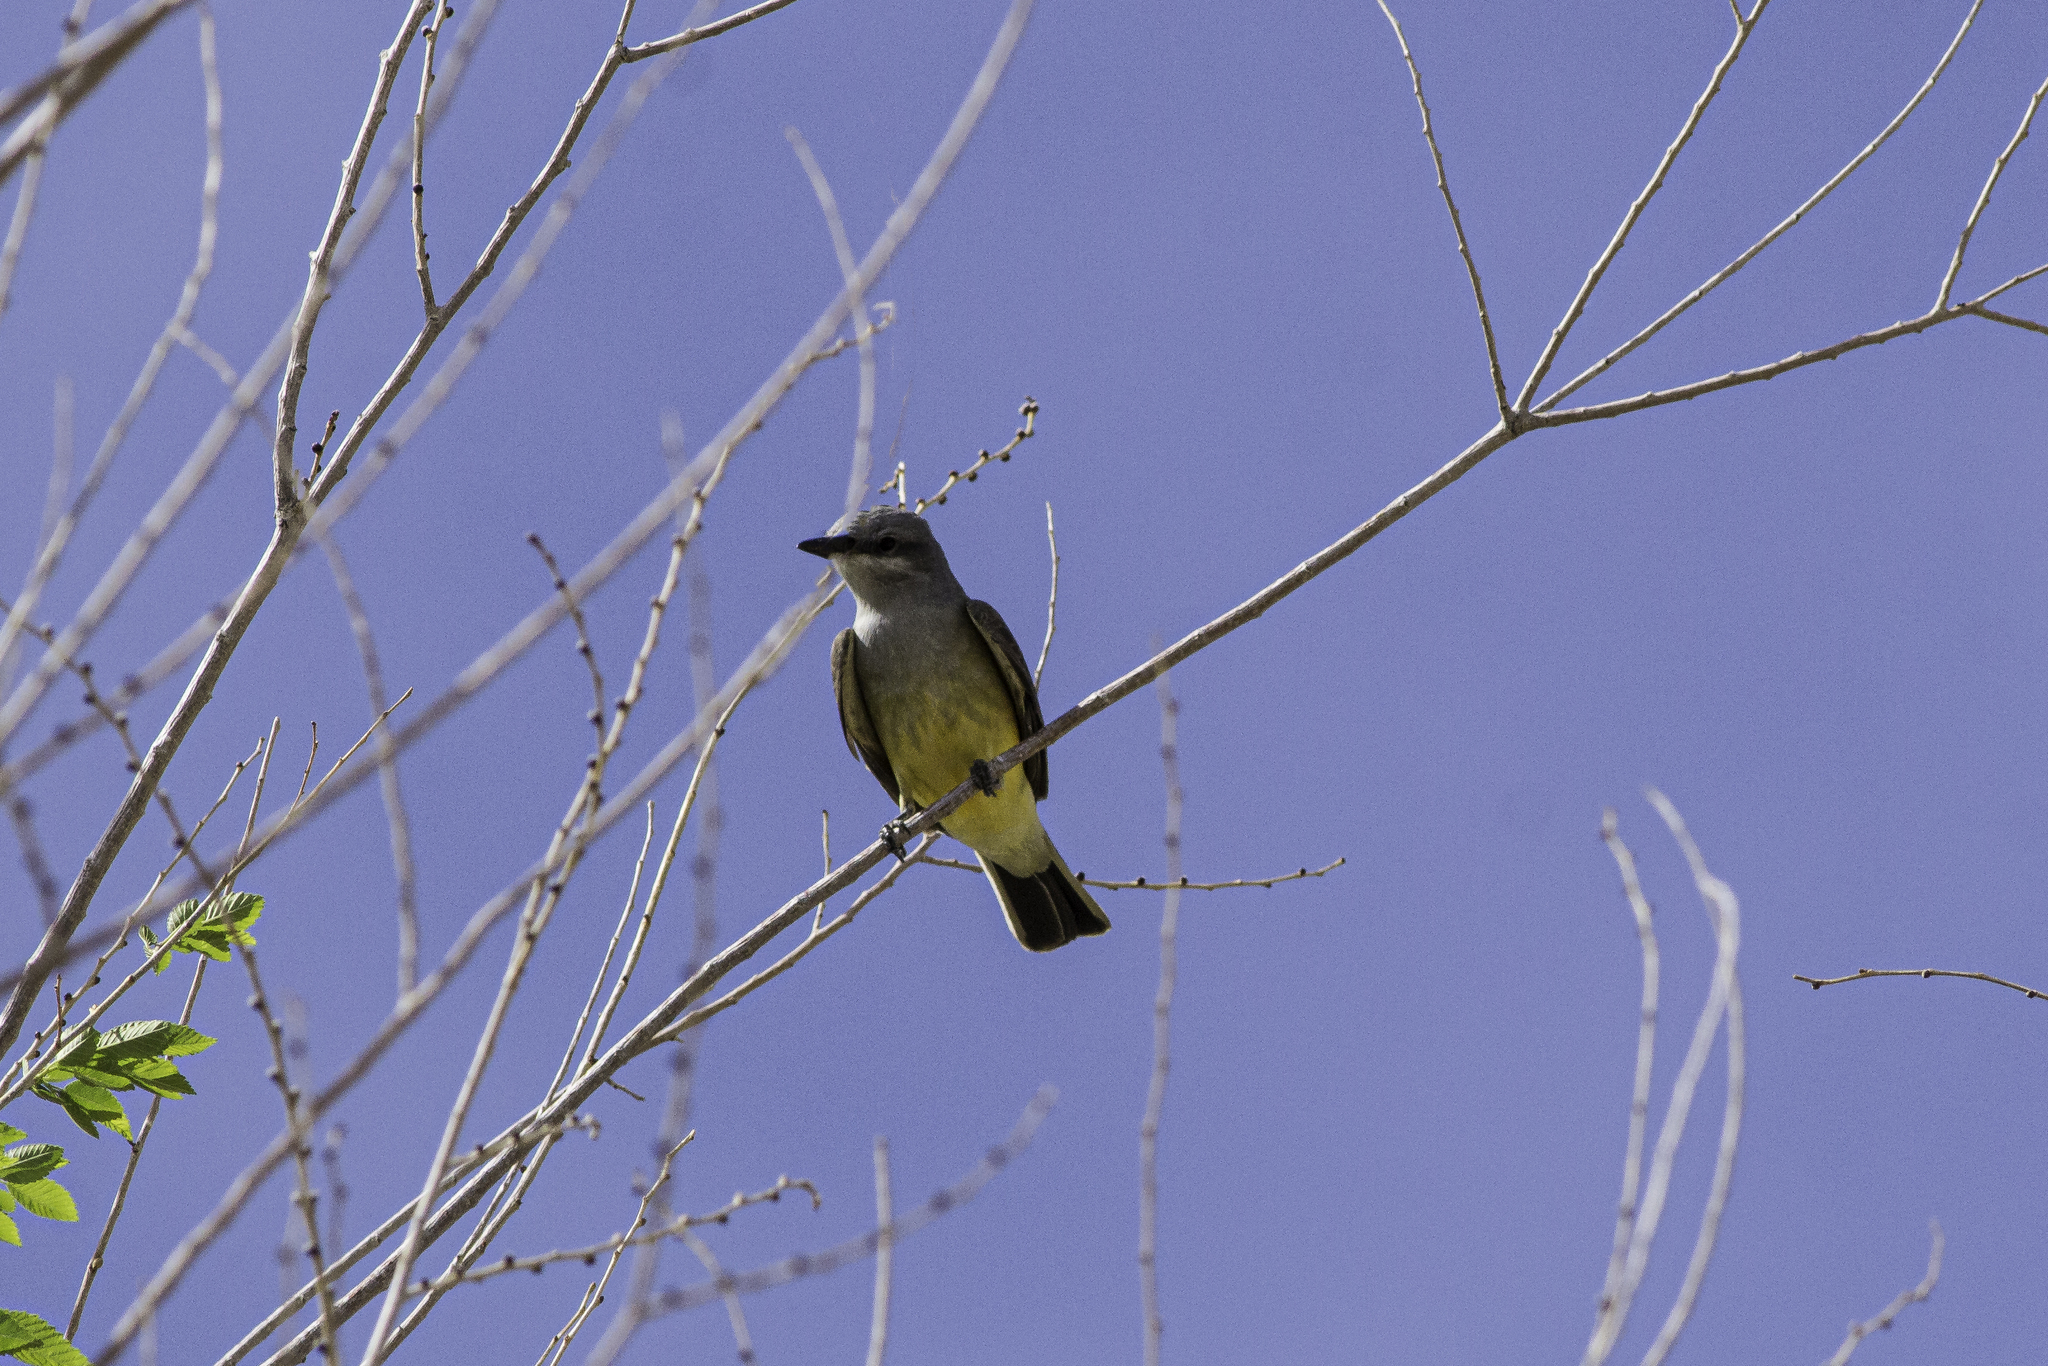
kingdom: Animalia
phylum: Chordata
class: Aves
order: Passeriformes
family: Tyrannidae
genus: Tyrannus
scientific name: Tyrannus verticalis
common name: Western kingbird
